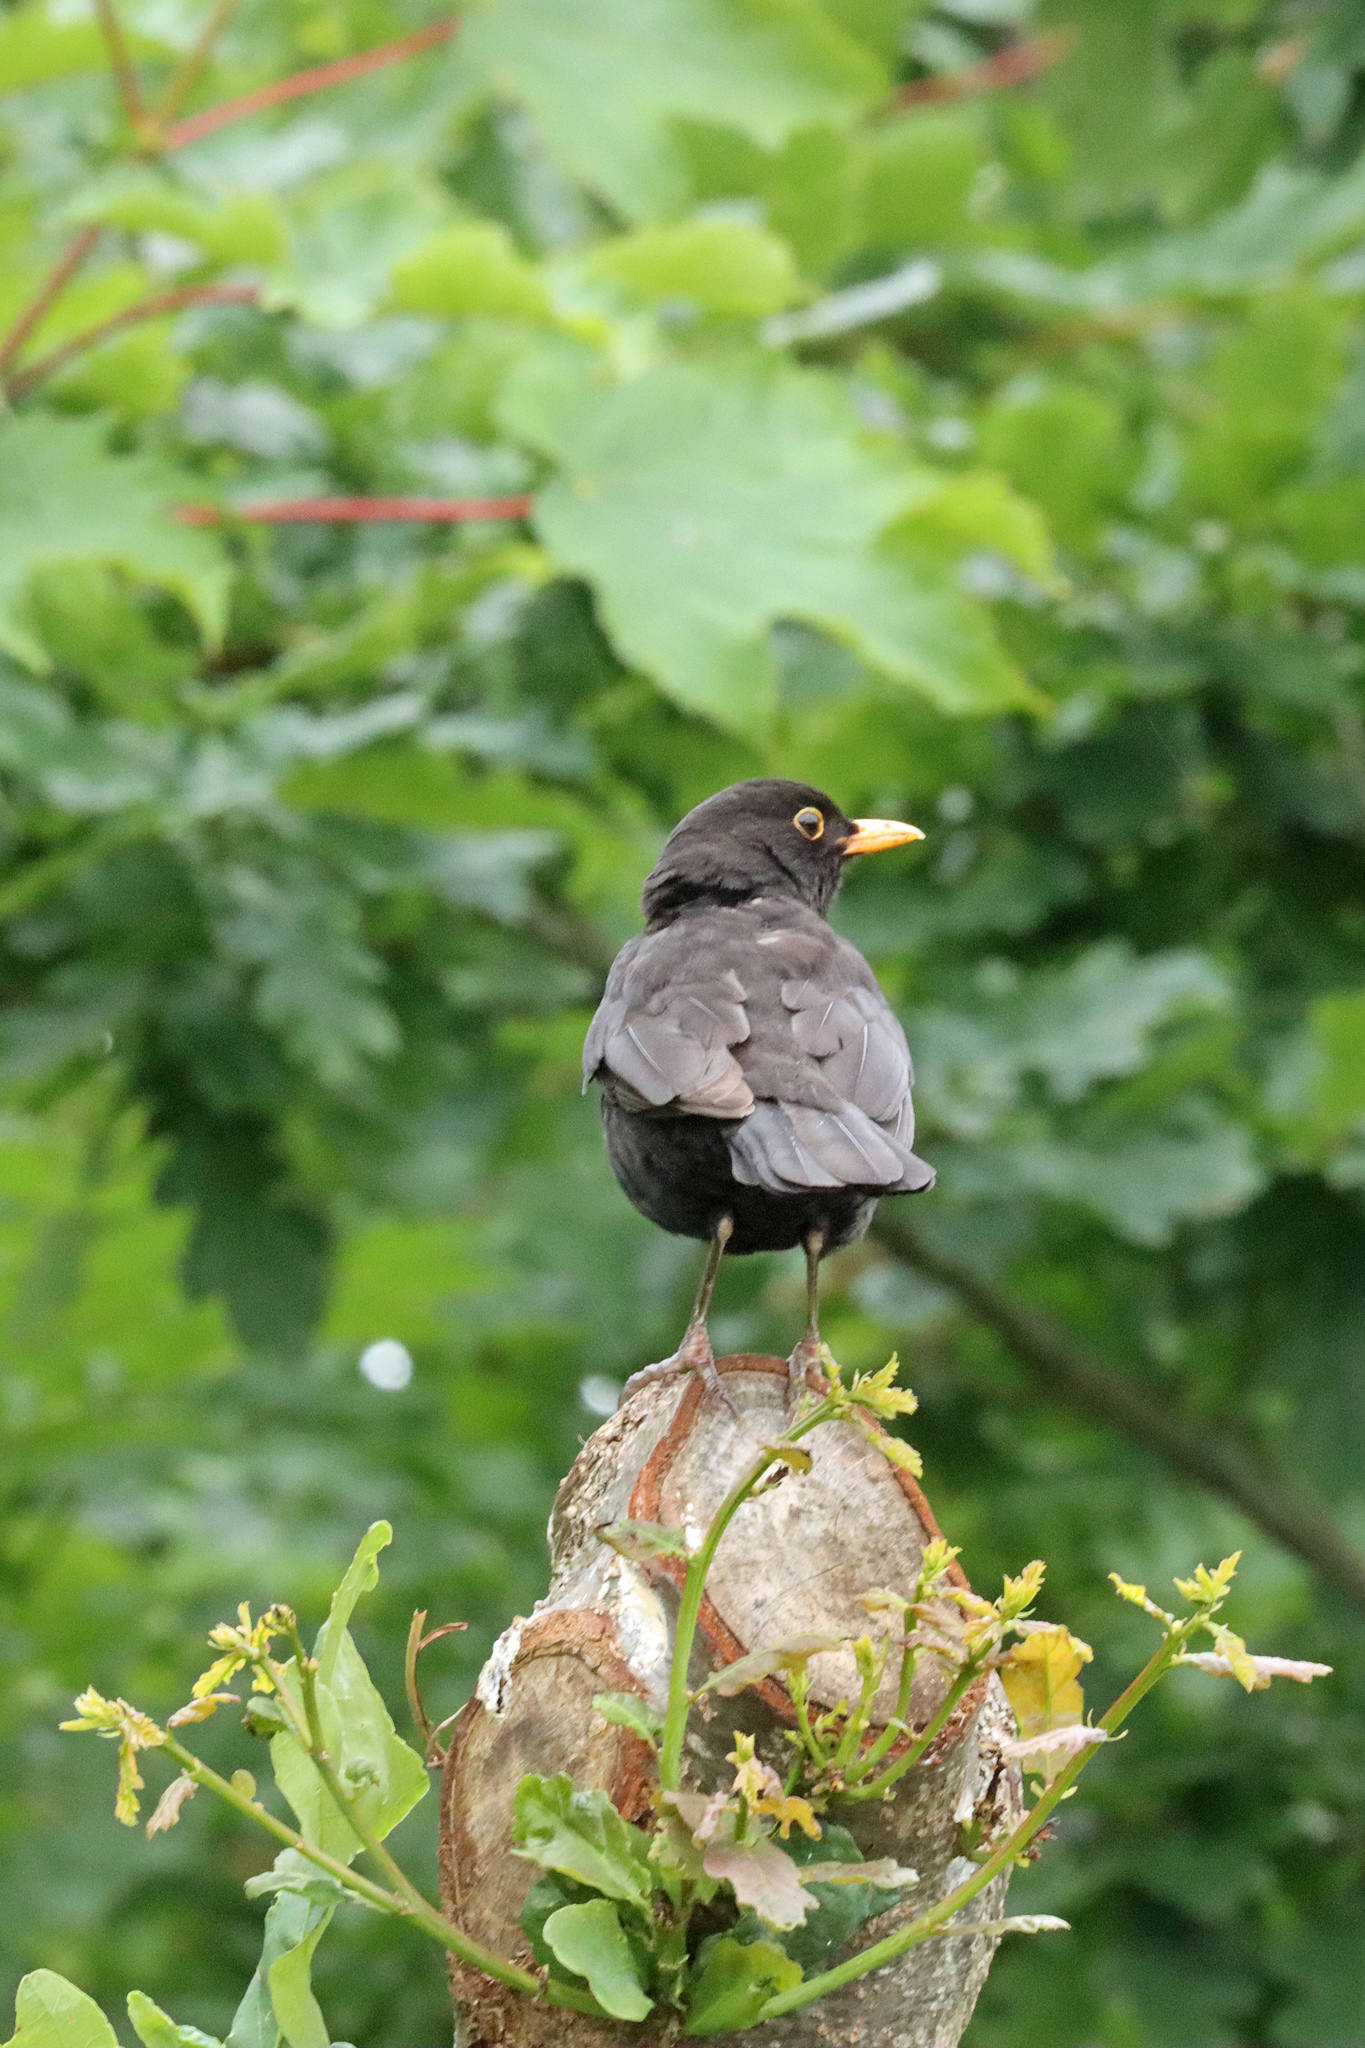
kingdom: Animalia
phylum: Chordata
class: Aves
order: Passeriformes
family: Turdidae
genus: Turdus
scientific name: Turdus merula
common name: Common blackbird
